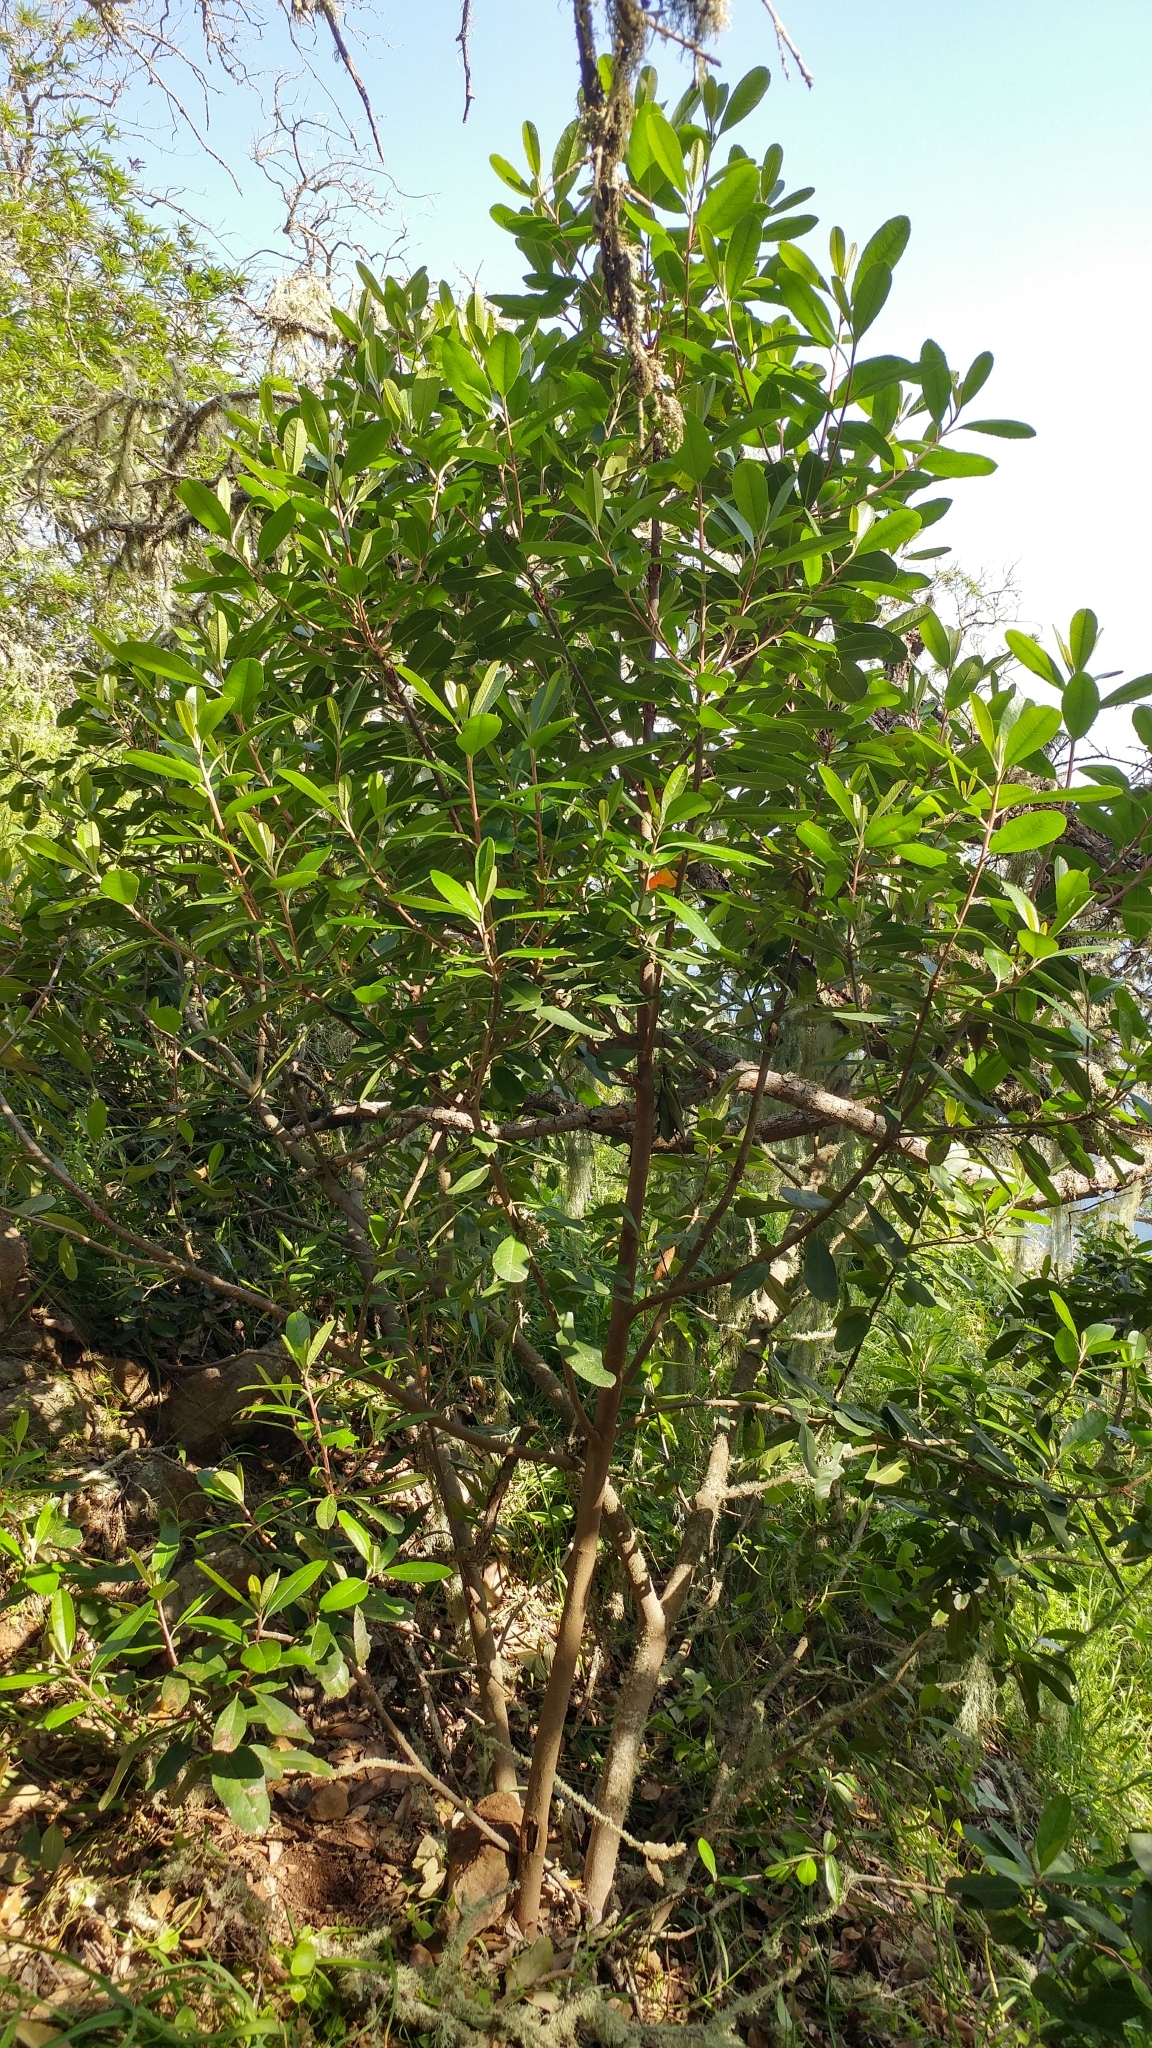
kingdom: Plantae
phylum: Tracheophyta
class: Magnoliopsida
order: Rosales
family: Rosaceae
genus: Heteromeles
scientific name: Heteromeles arbutifolia
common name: California-holly
